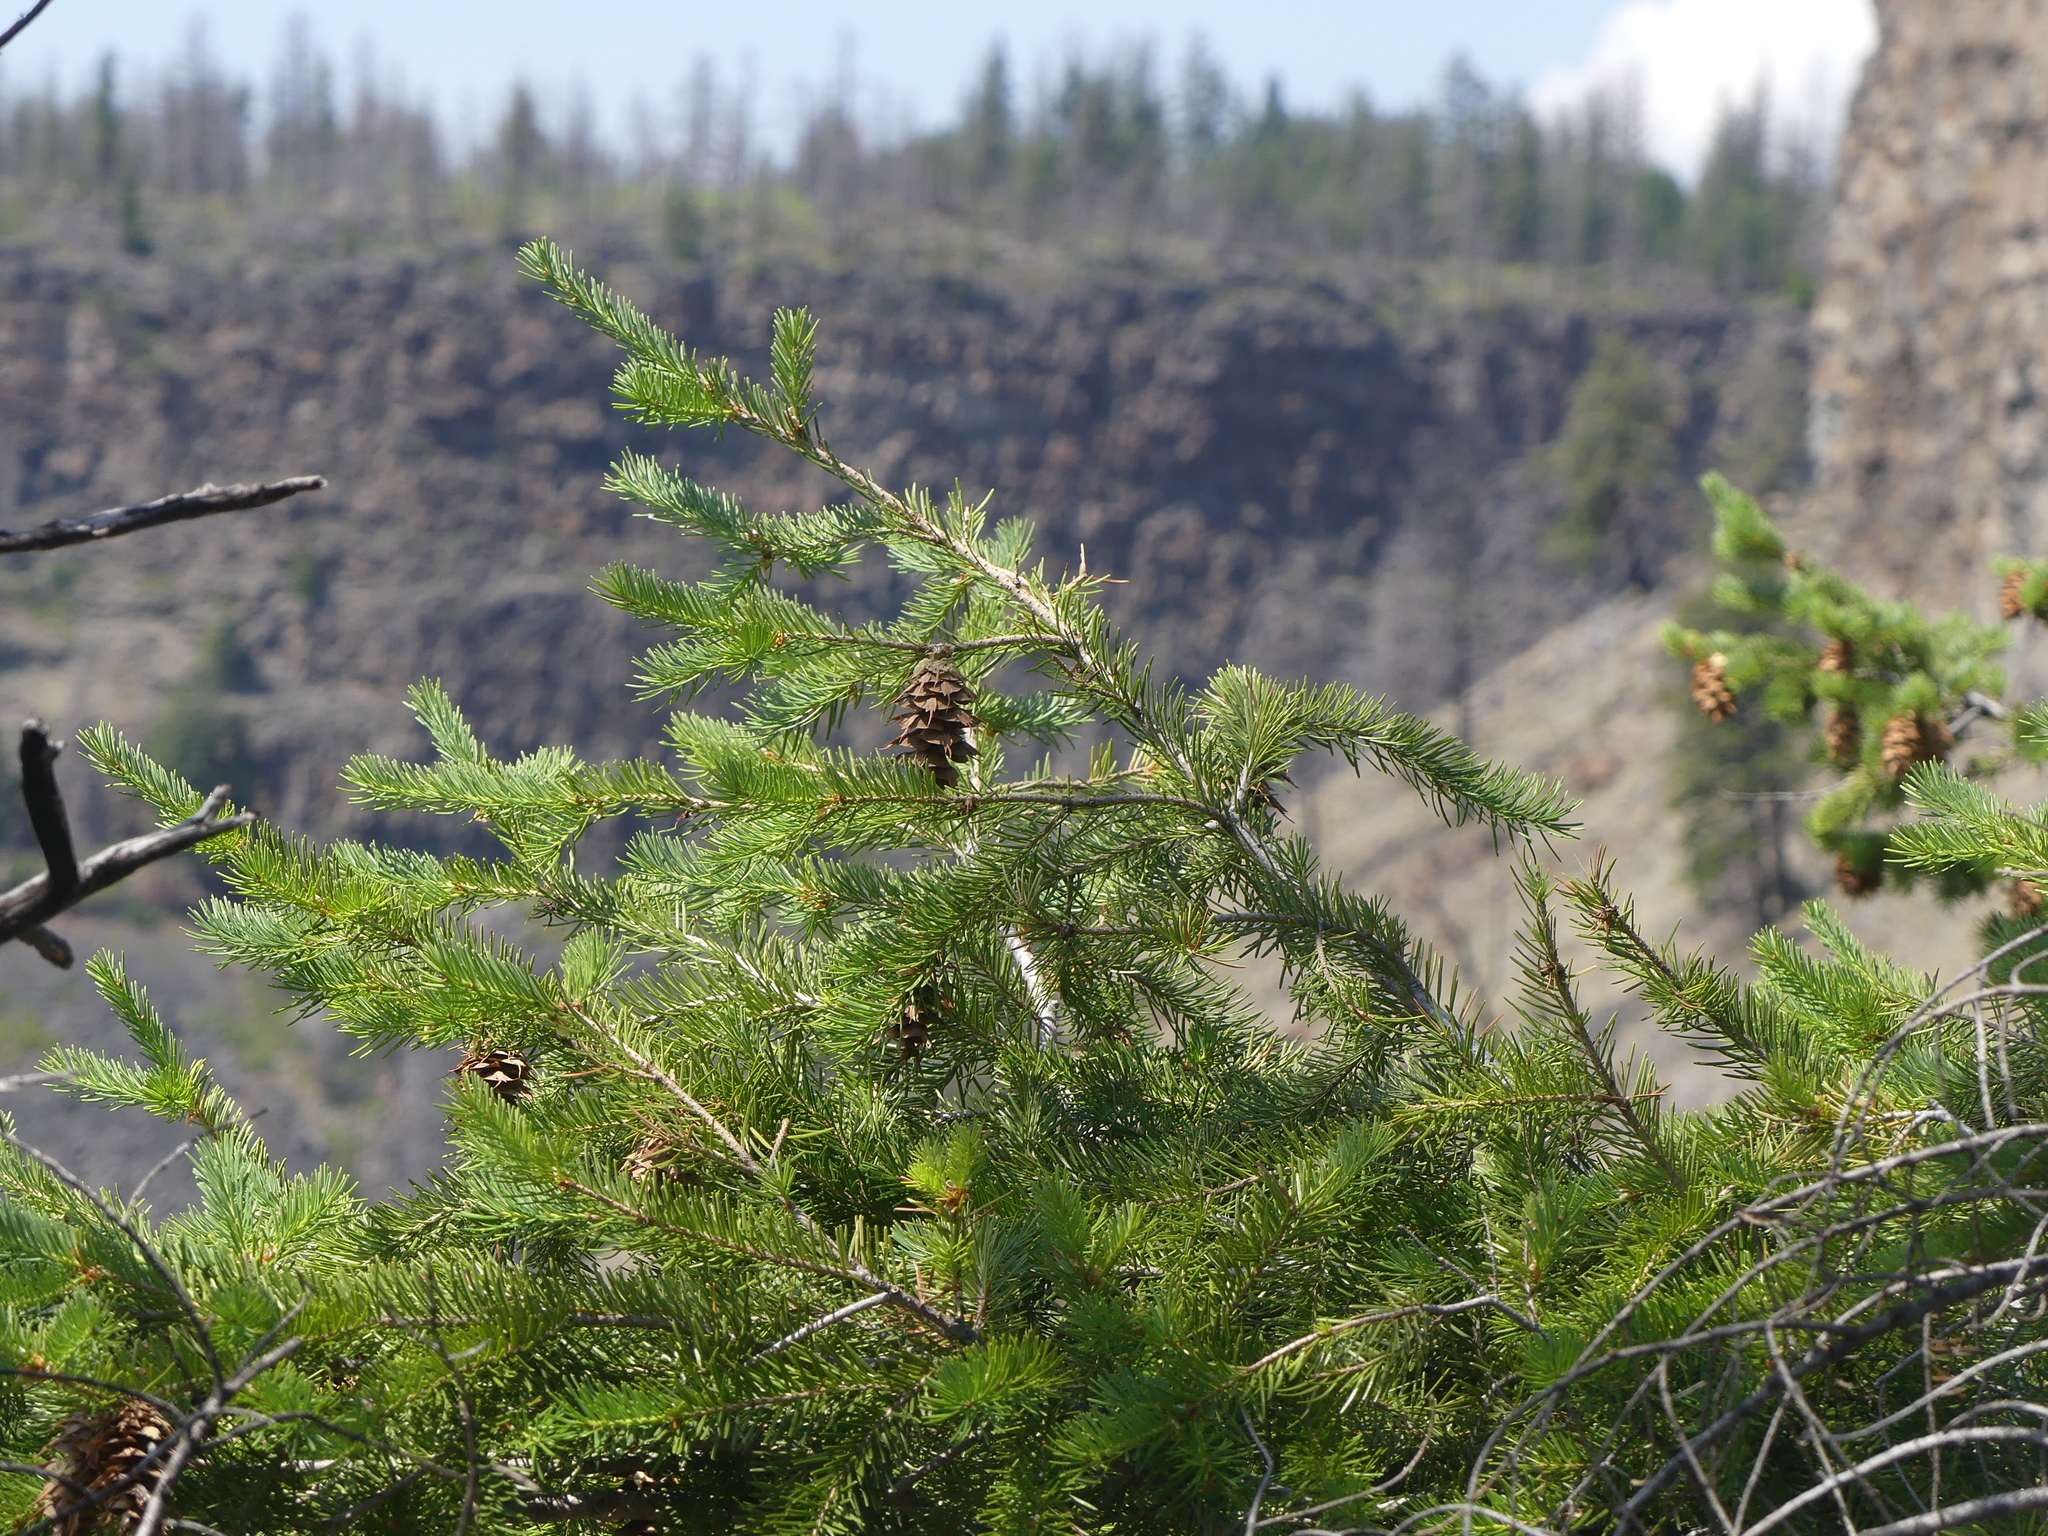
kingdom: Plantae
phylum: Tracheophyta
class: Pinopsida
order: Pinales
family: Pinaceae
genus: Pseudotsuga
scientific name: Pseudotsuga menziesii
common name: Douglas fir
